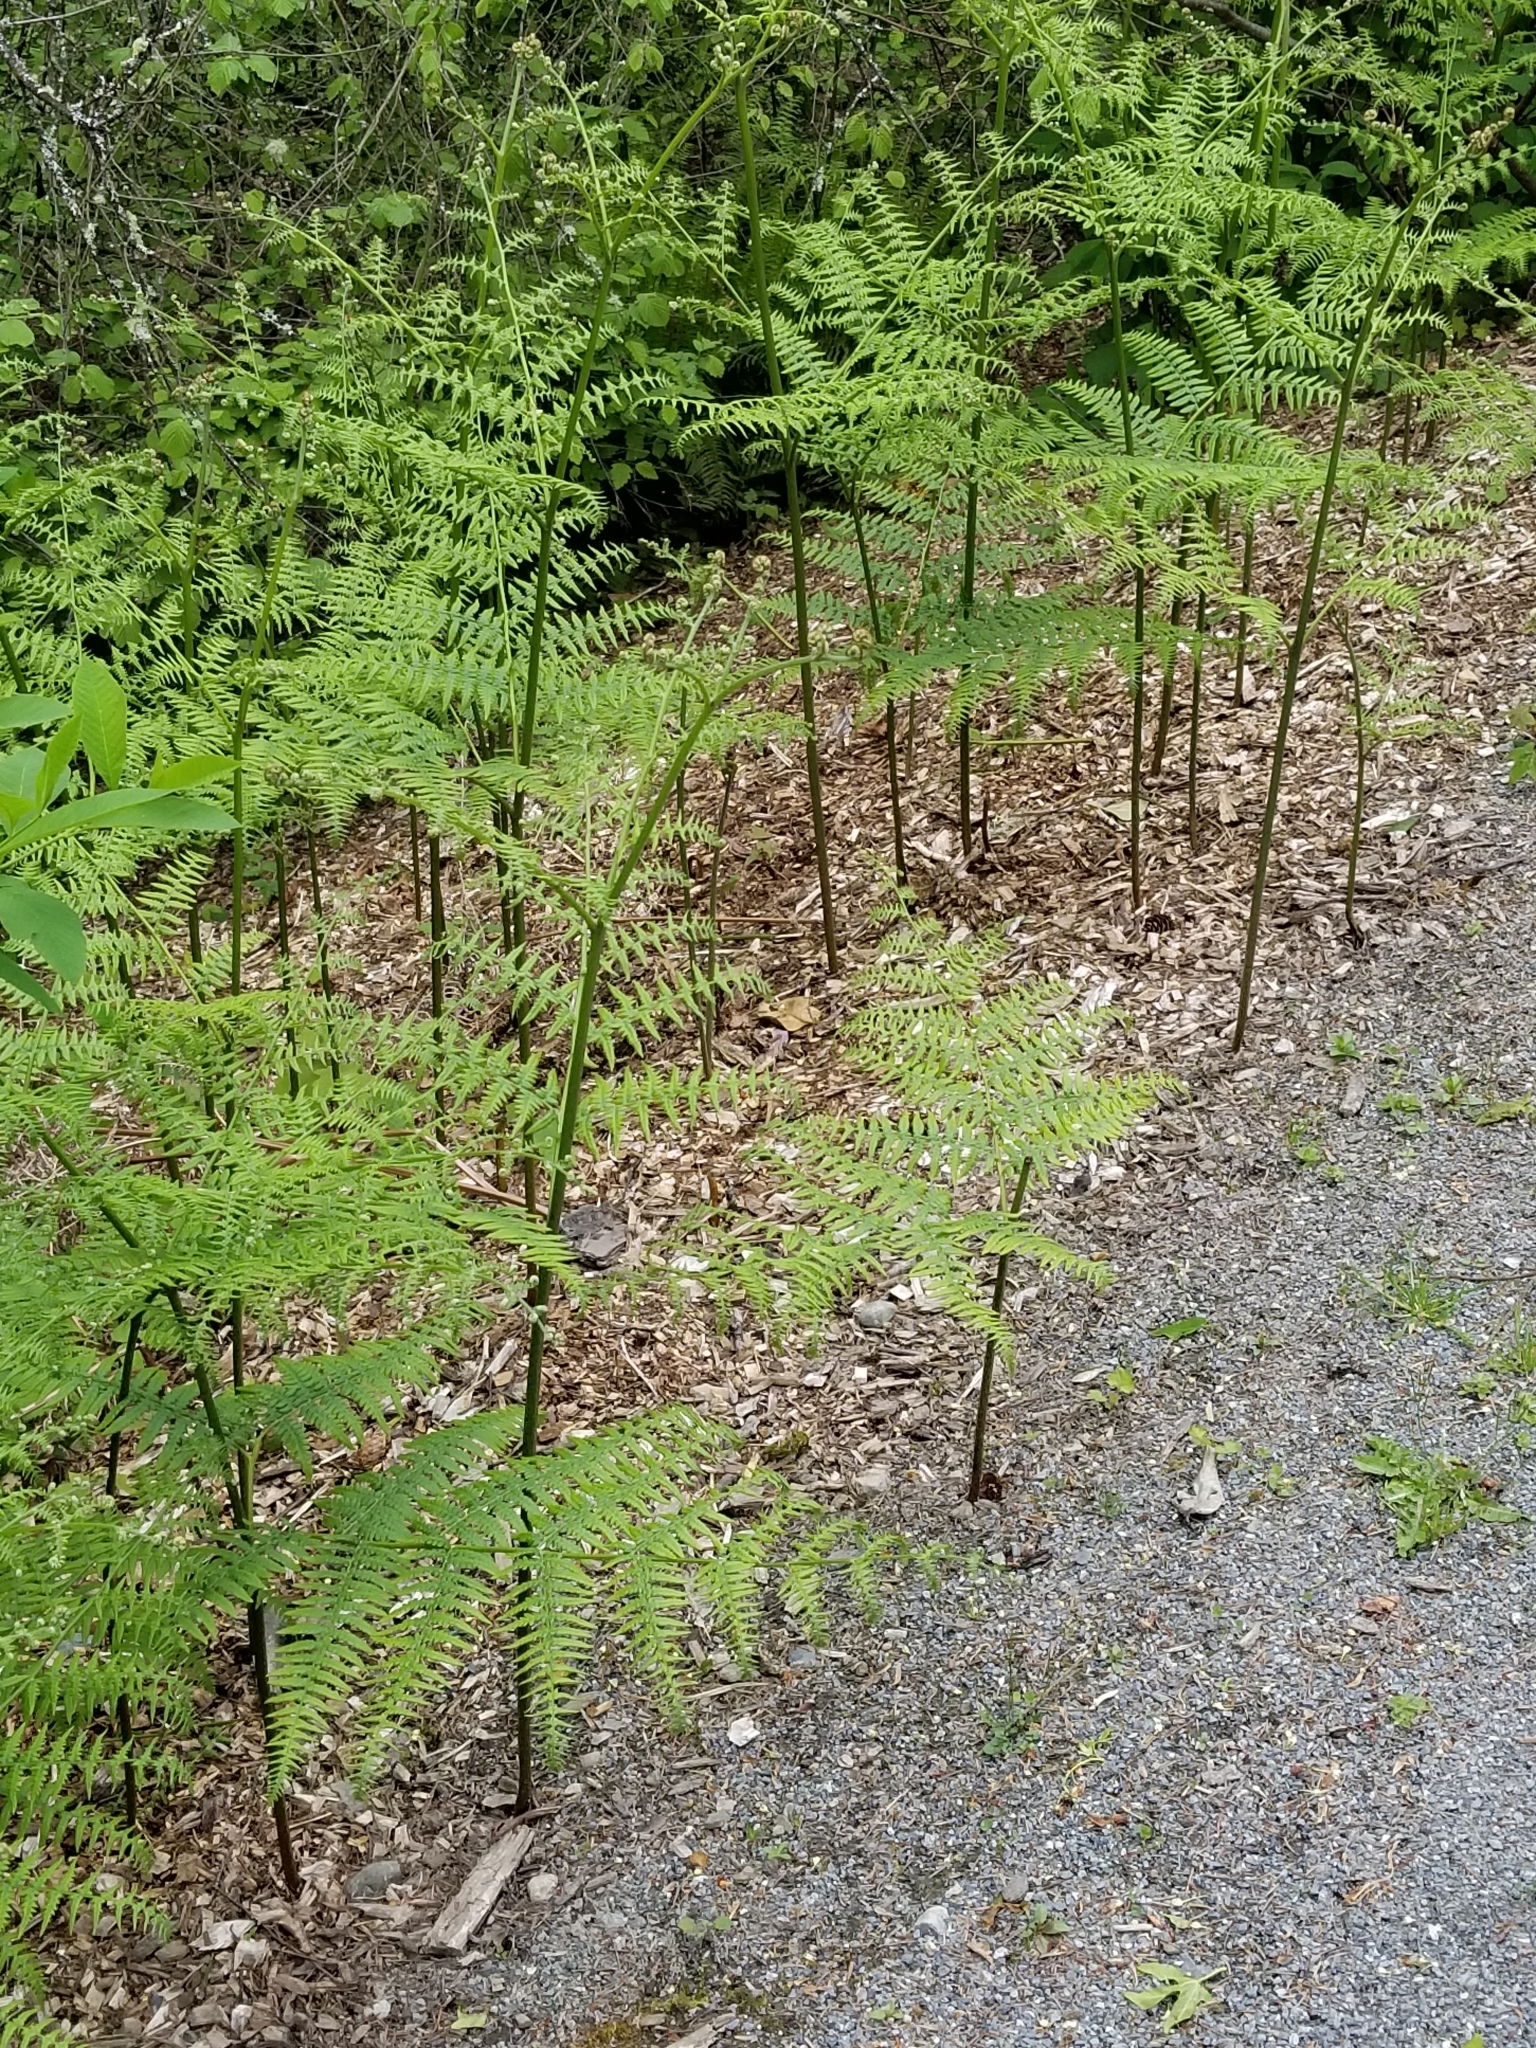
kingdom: Plantae
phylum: Tracheophyta
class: Polypodiopsida
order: Polypodiales
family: Dennstaedtiaceae
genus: Pteridium
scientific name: Pteridium aquilinum
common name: Bracken
